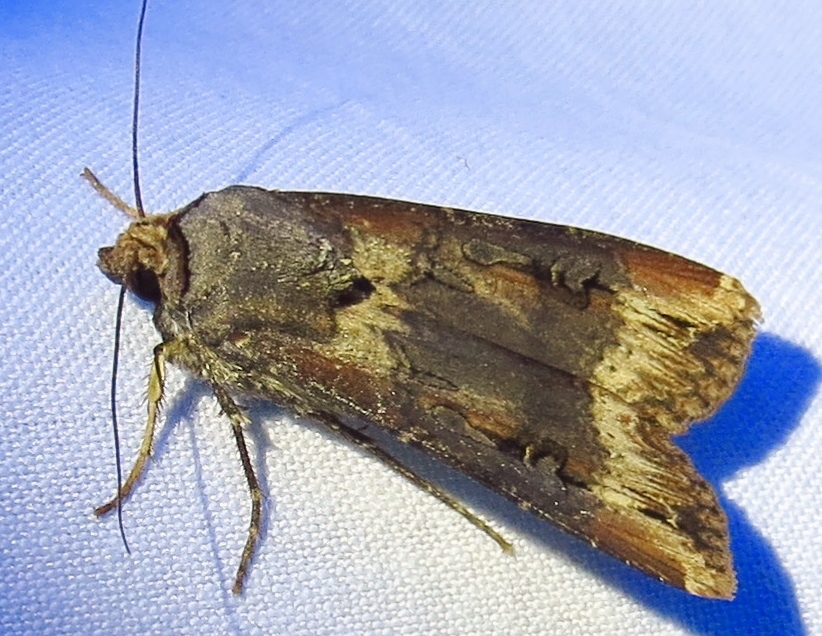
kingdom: Animalia
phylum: Arthropoda
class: Insecta
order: Lepidoptera
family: Noctuidae
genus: Agrotis
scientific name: Agrotis ipsilon
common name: Dark sword-grass
